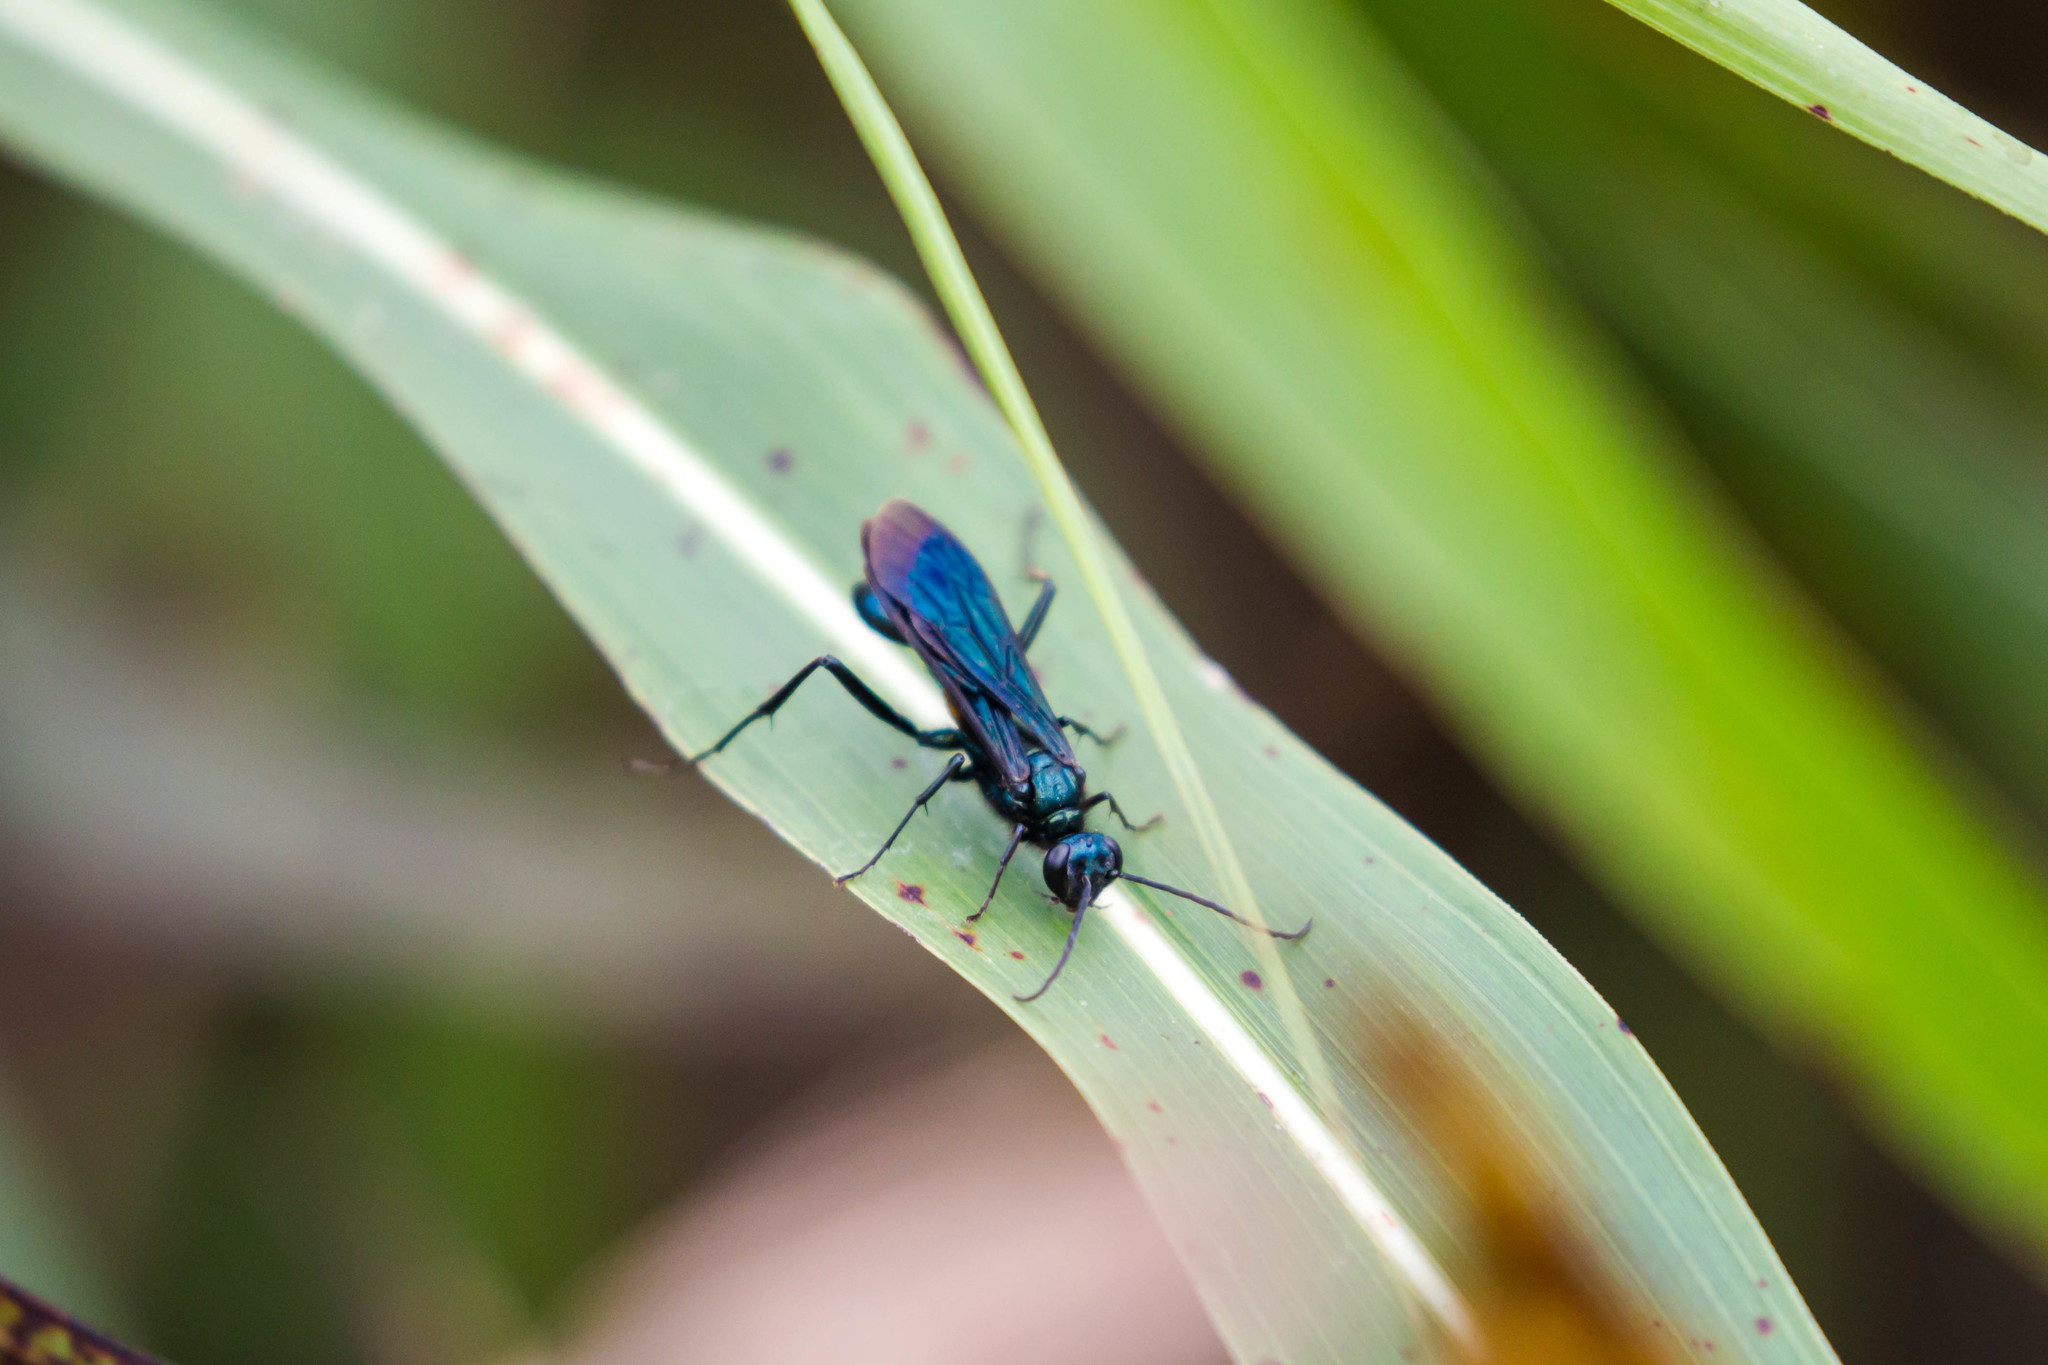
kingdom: Animalia
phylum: Arthropoda
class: Insecta
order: Hymenoptera
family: Sphecidae
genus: Chalybion
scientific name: Chalybion californicum
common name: Mud dauber
